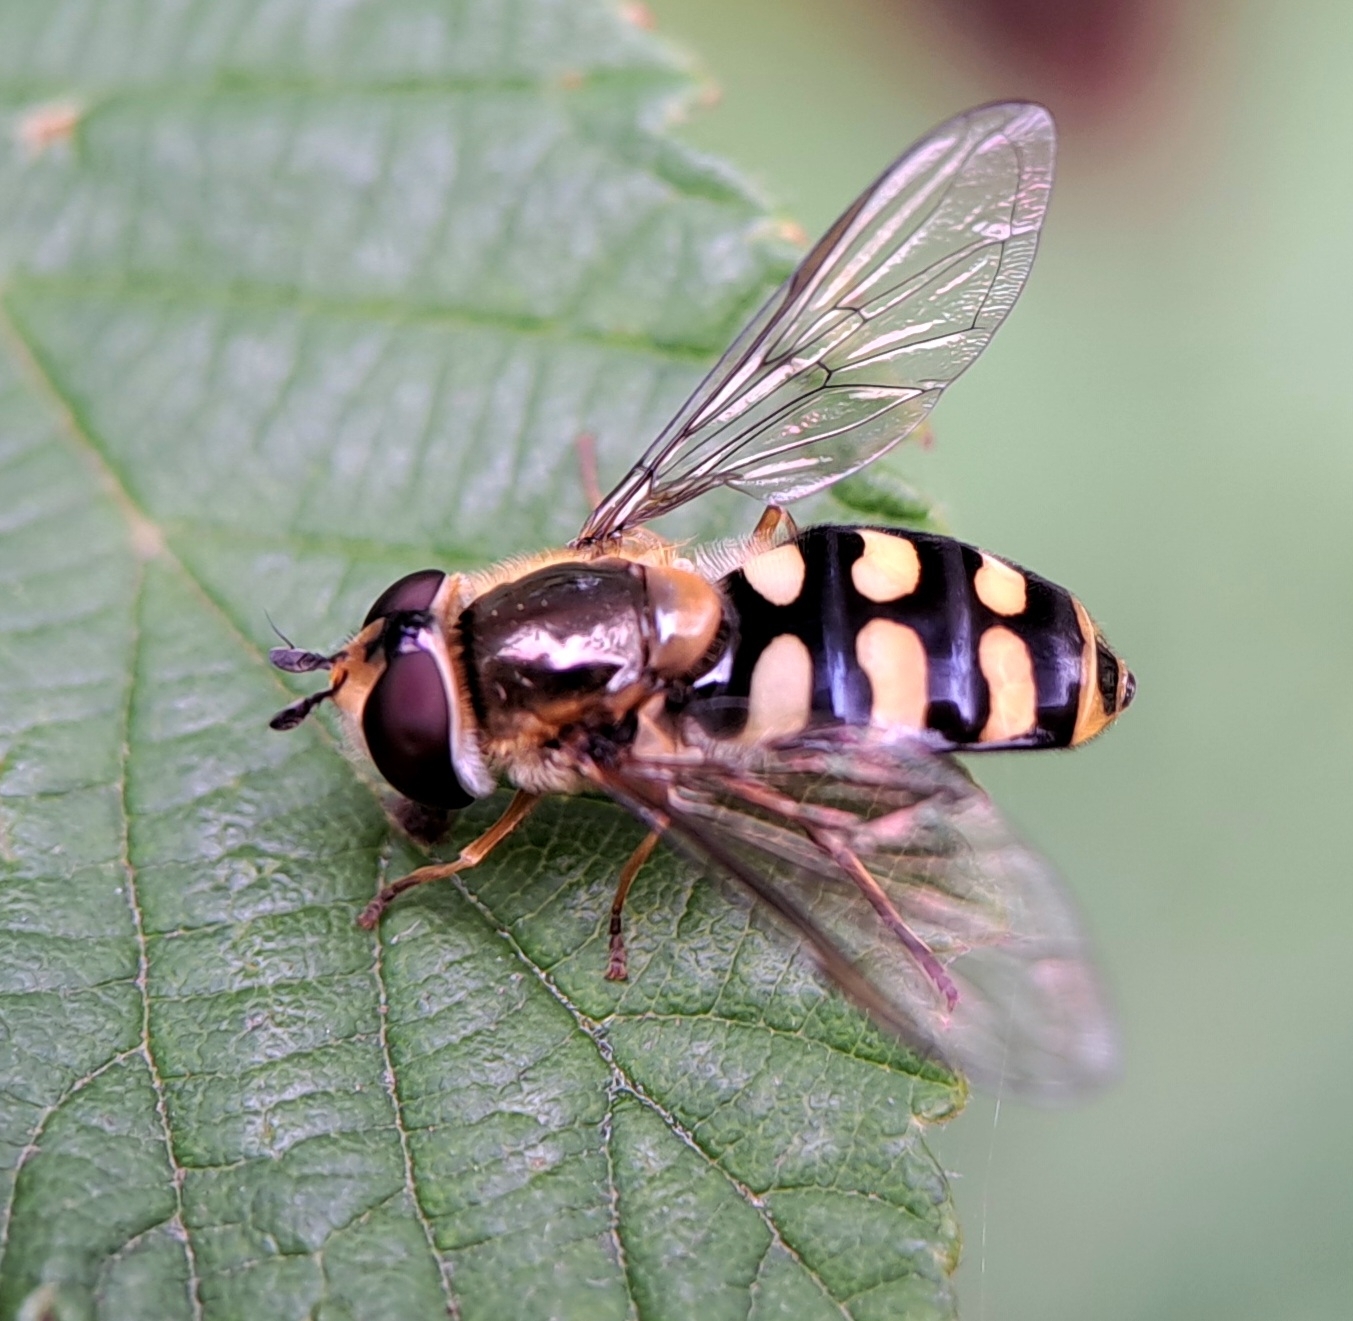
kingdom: Animalia
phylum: Arthropoda
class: Insecta
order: Diptera
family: Syrphidae
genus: Eupeodes
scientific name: Eupeodes luniger
